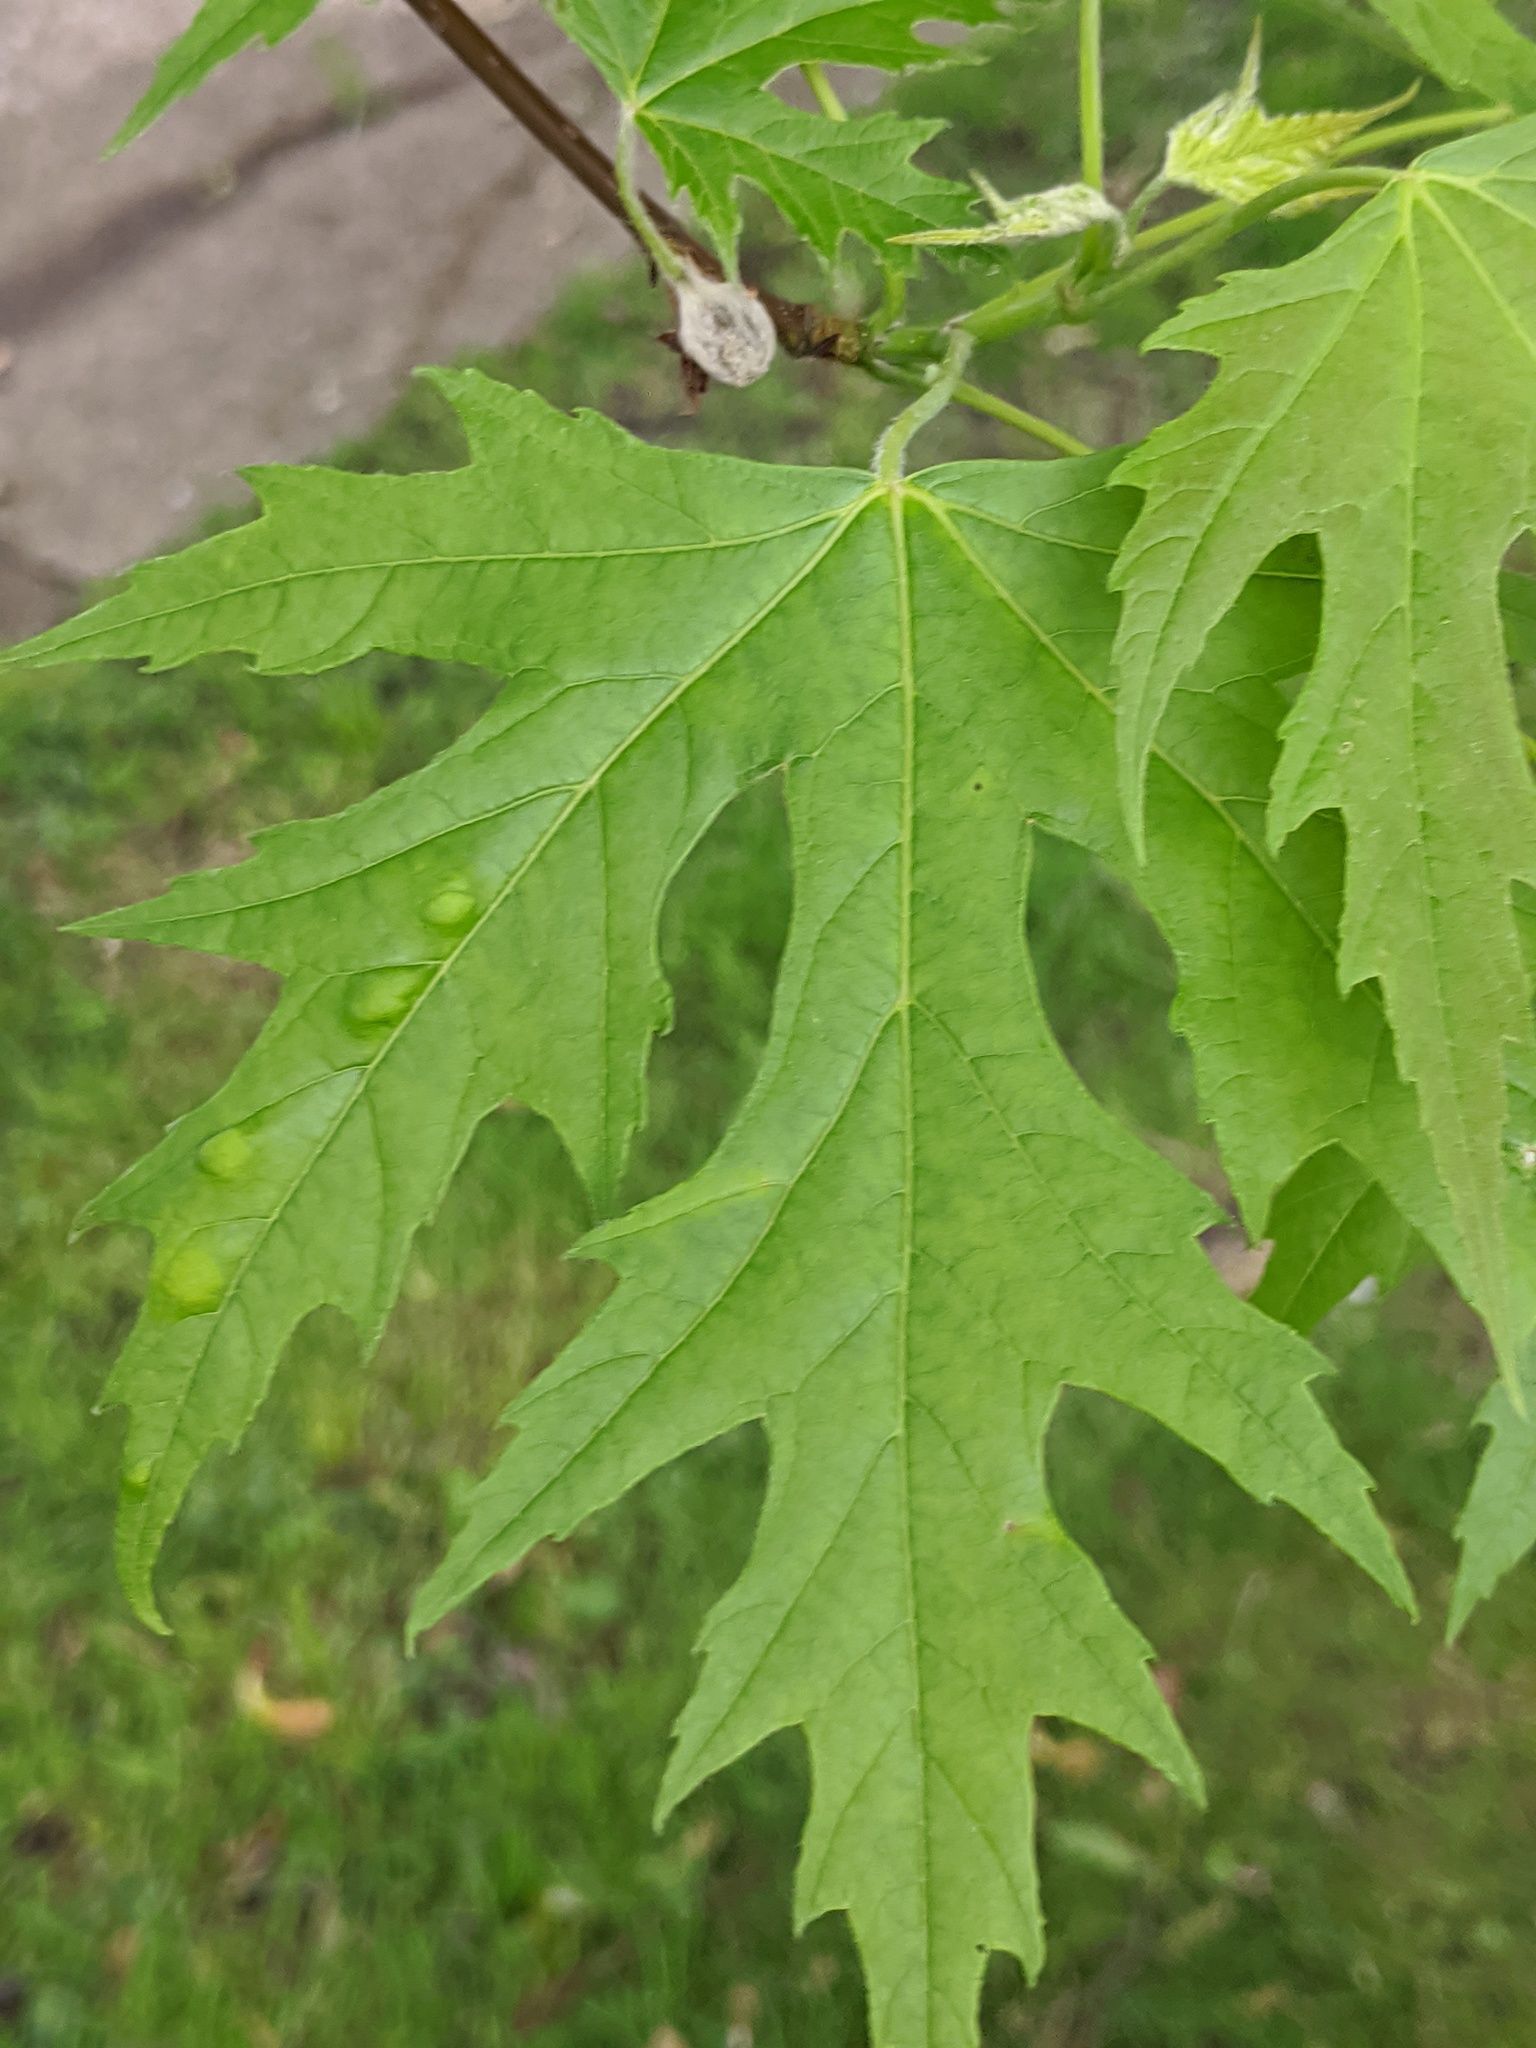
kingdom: Fungi
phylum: Ascomycota
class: Taphrinomycetes
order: Taphrinales
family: Taphrinaceae
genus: Taphrina
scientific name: Taphrina carveri
